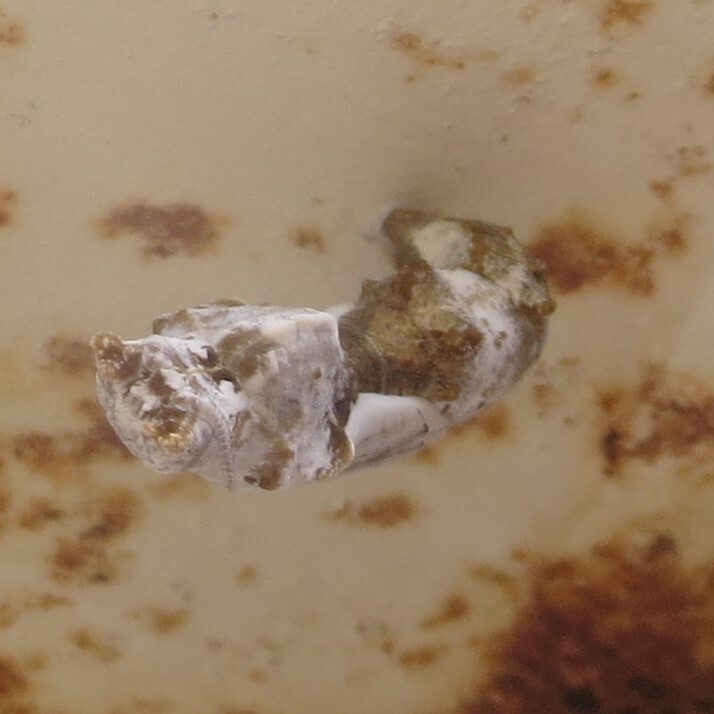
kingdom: Animalia
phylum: Arthropoda
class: Insecta
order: Lepidoptera
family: Nymphalidae
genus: Dione
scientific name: Dione vanillae
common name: Gulf fritillary
